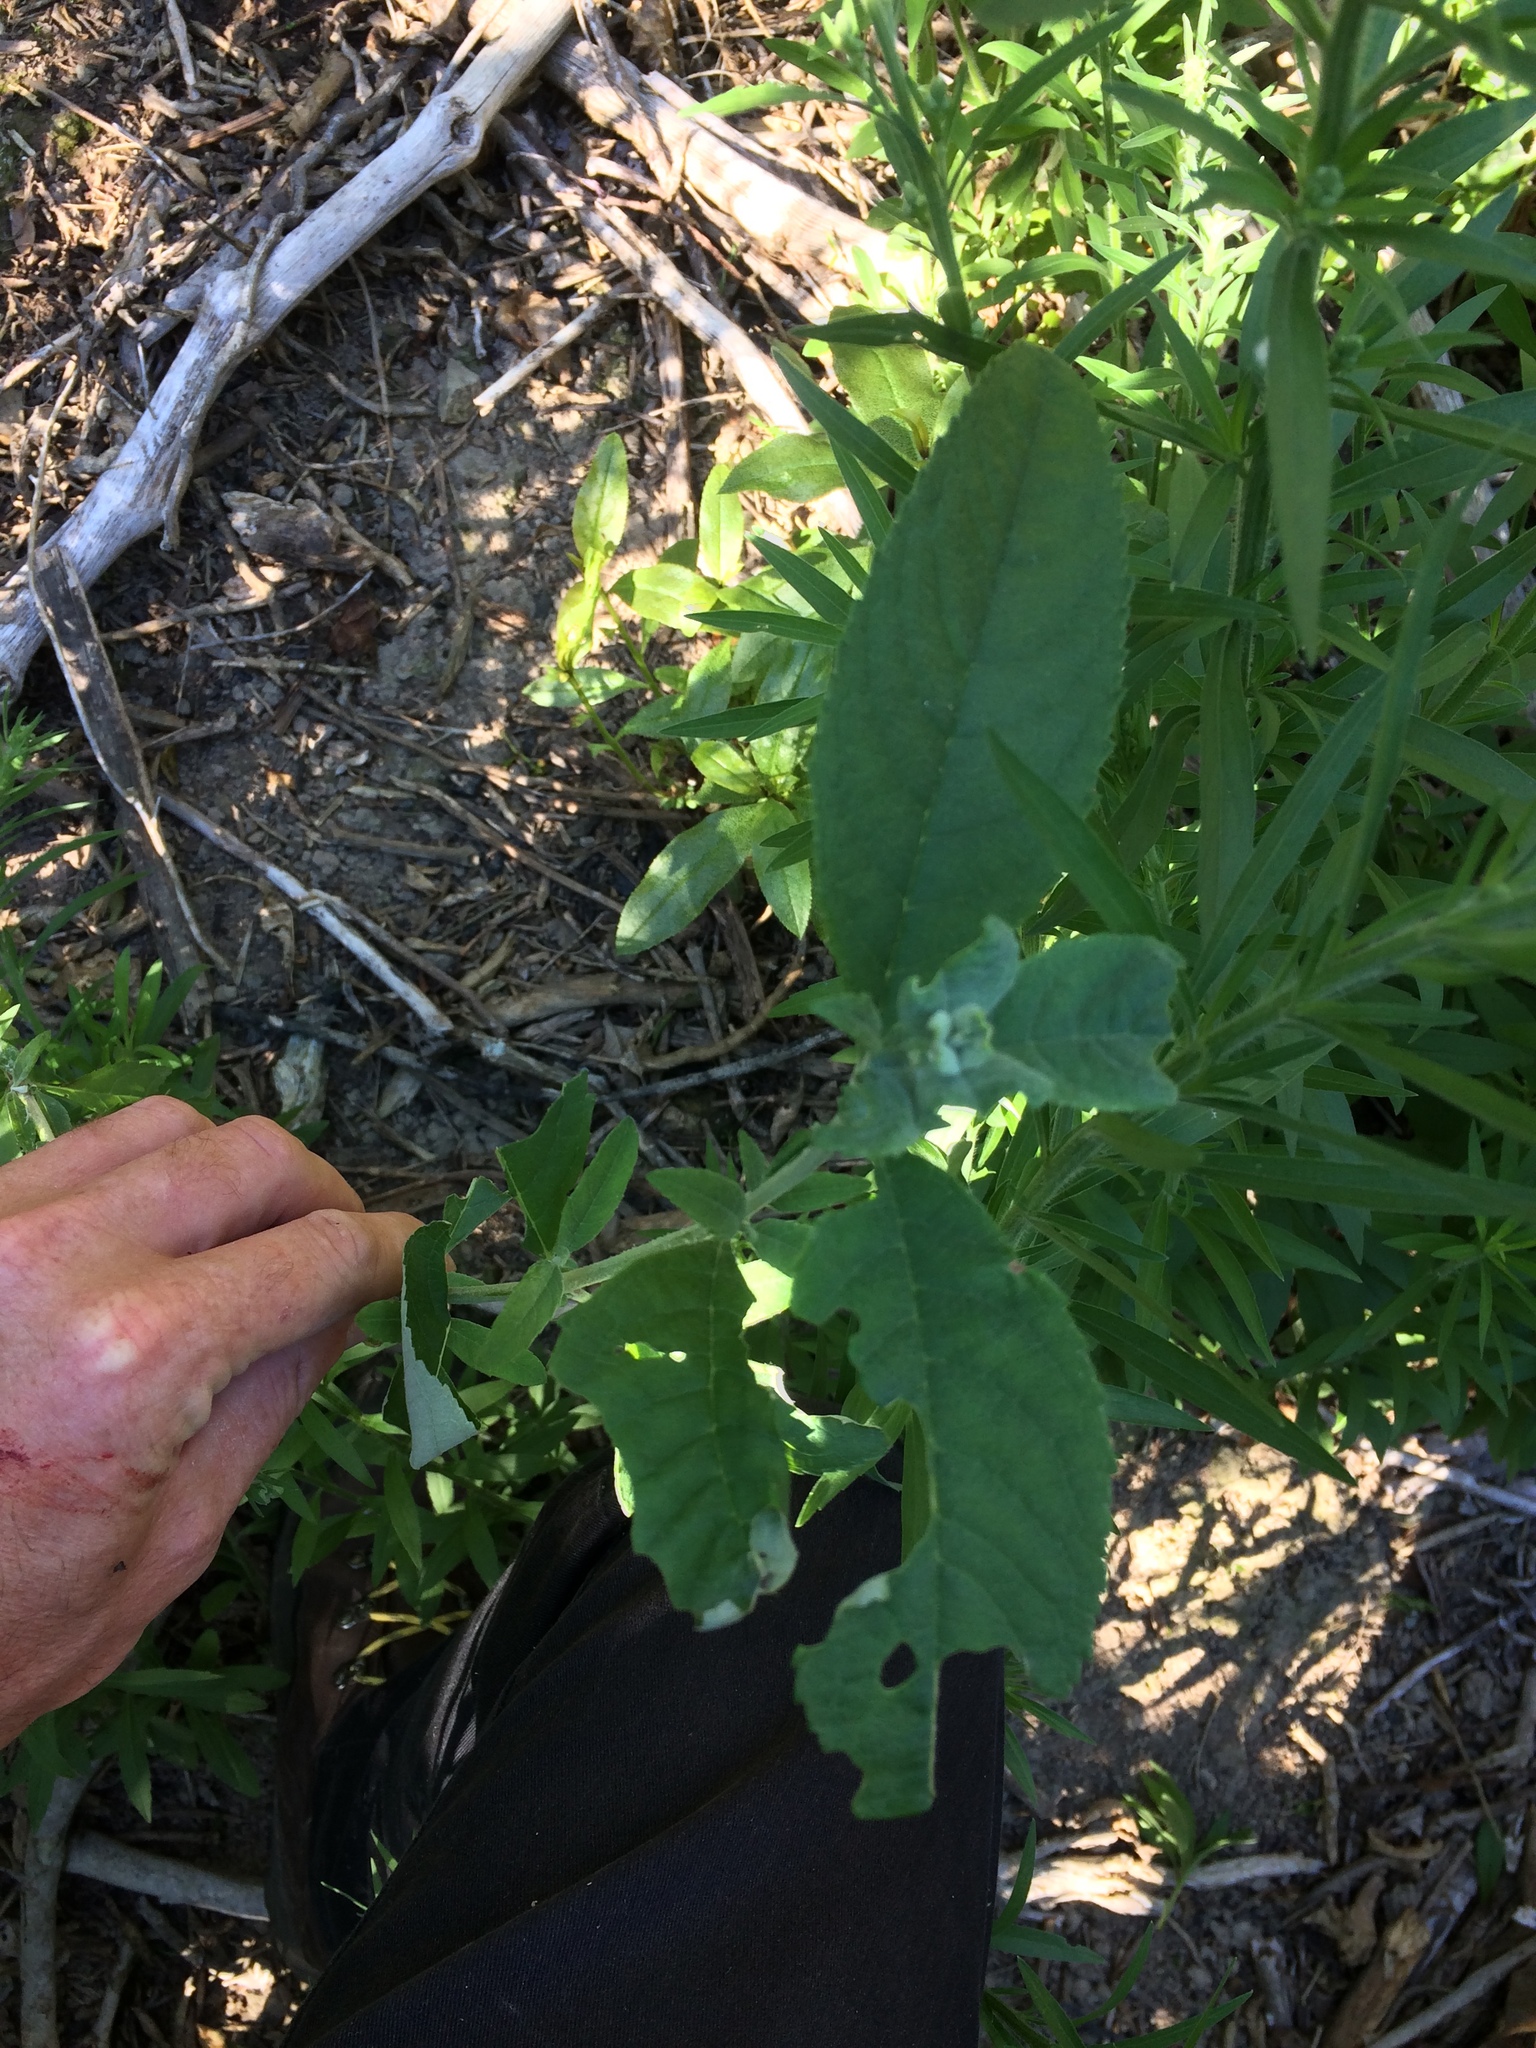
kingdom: Plantae
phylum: Tracheophyta
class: Magnoliopsida
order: Lamiales
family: Scrophulariaceae
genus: Buddleja
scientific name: Buddleja davidii
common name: Butterfly-bush
